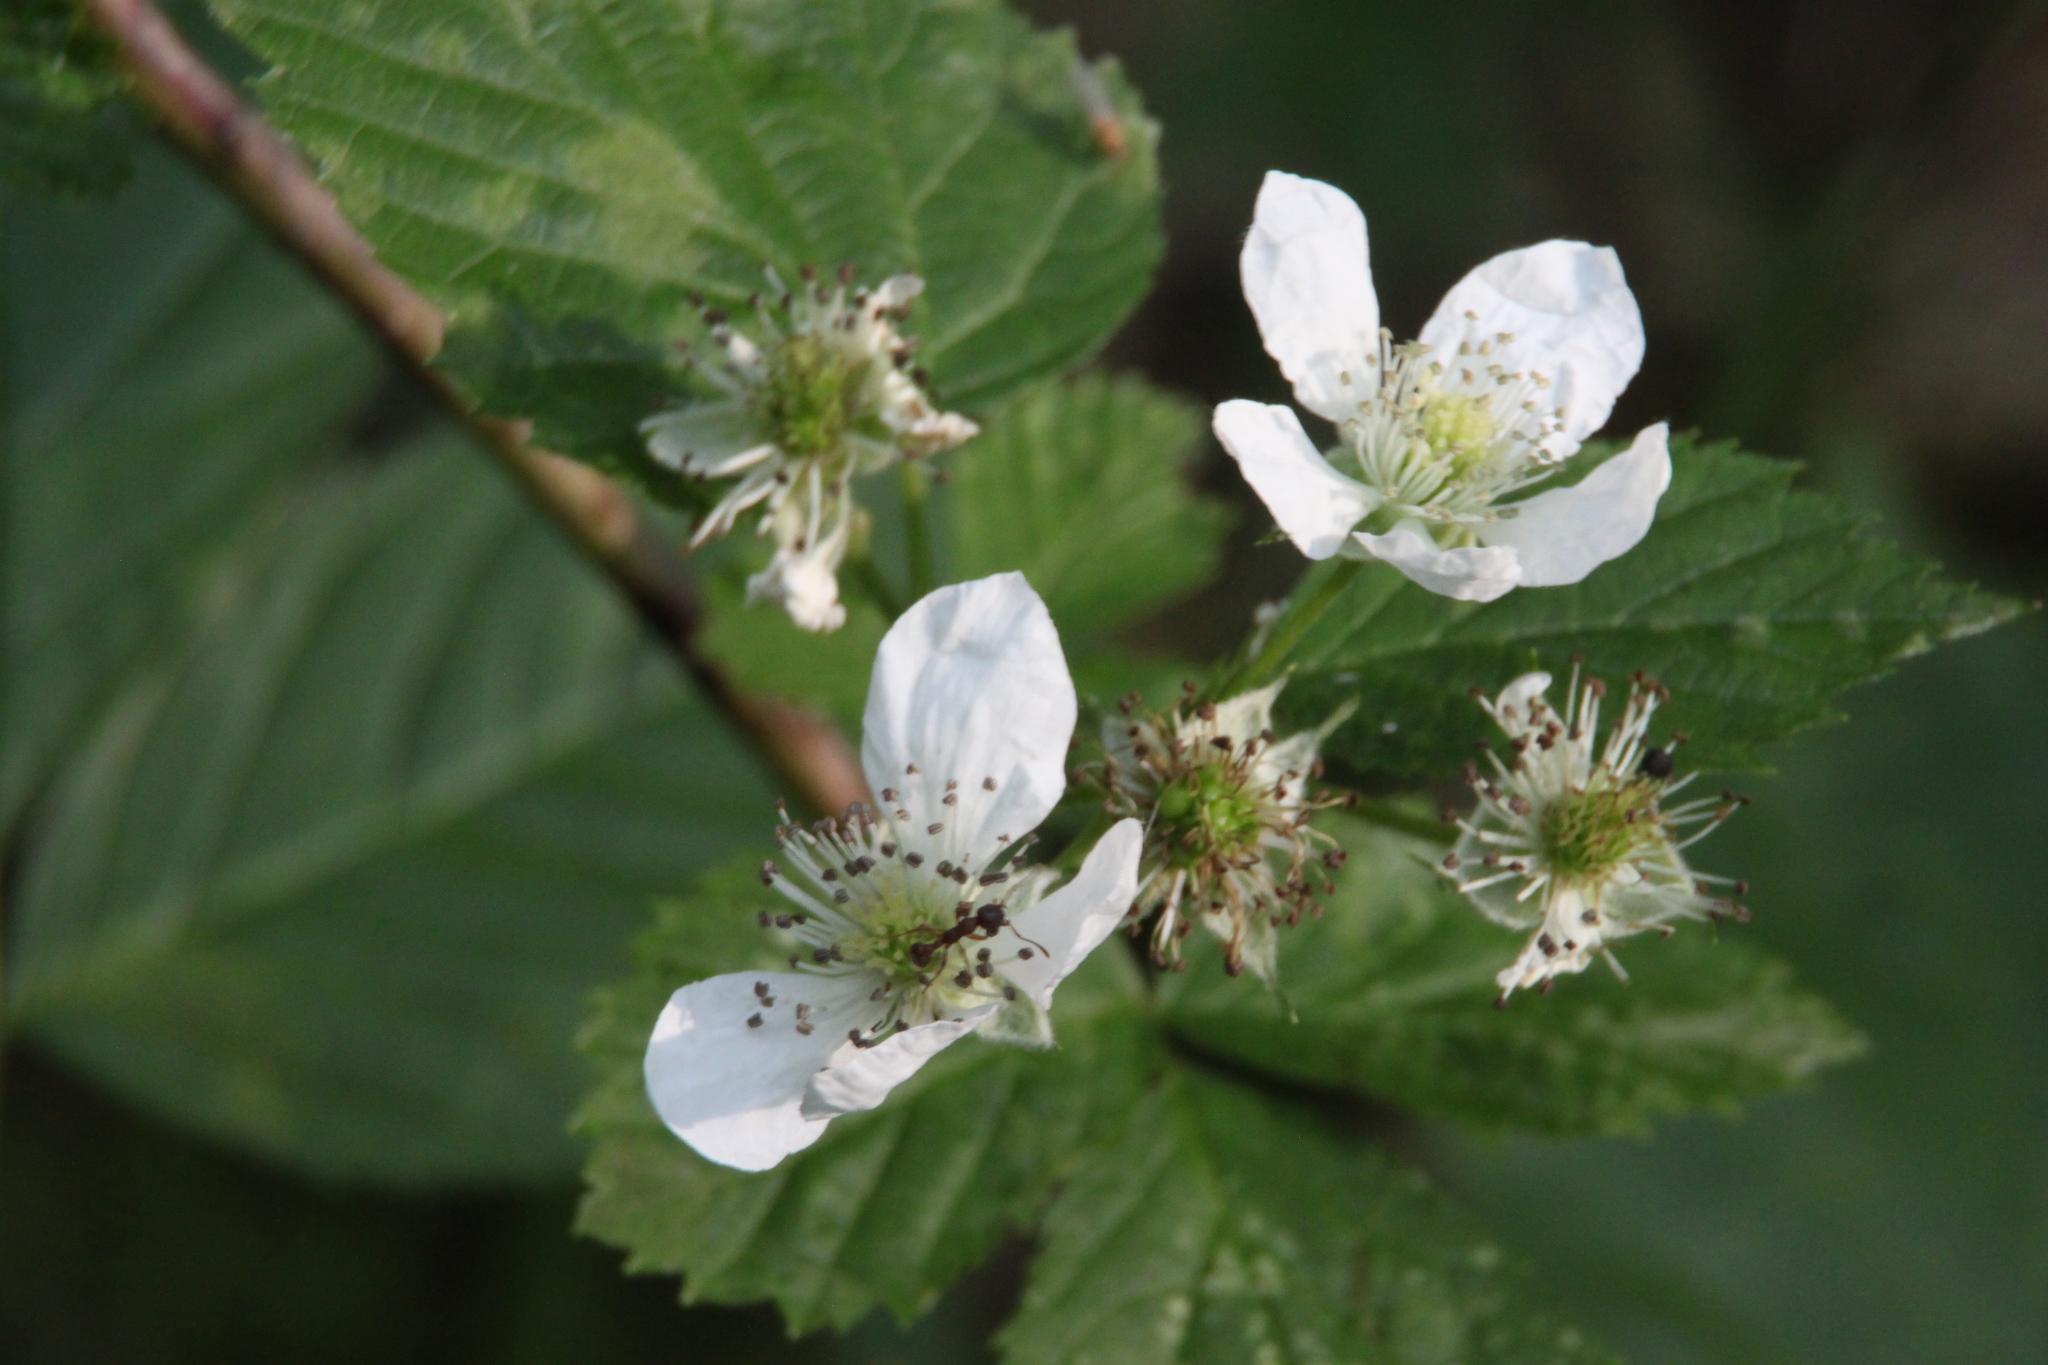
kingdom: Plantae
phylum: Tracheophyta
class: Magnoliopsida
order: Rosales
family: Rosaceae
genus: Rubus
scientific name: Rubus polonicus
